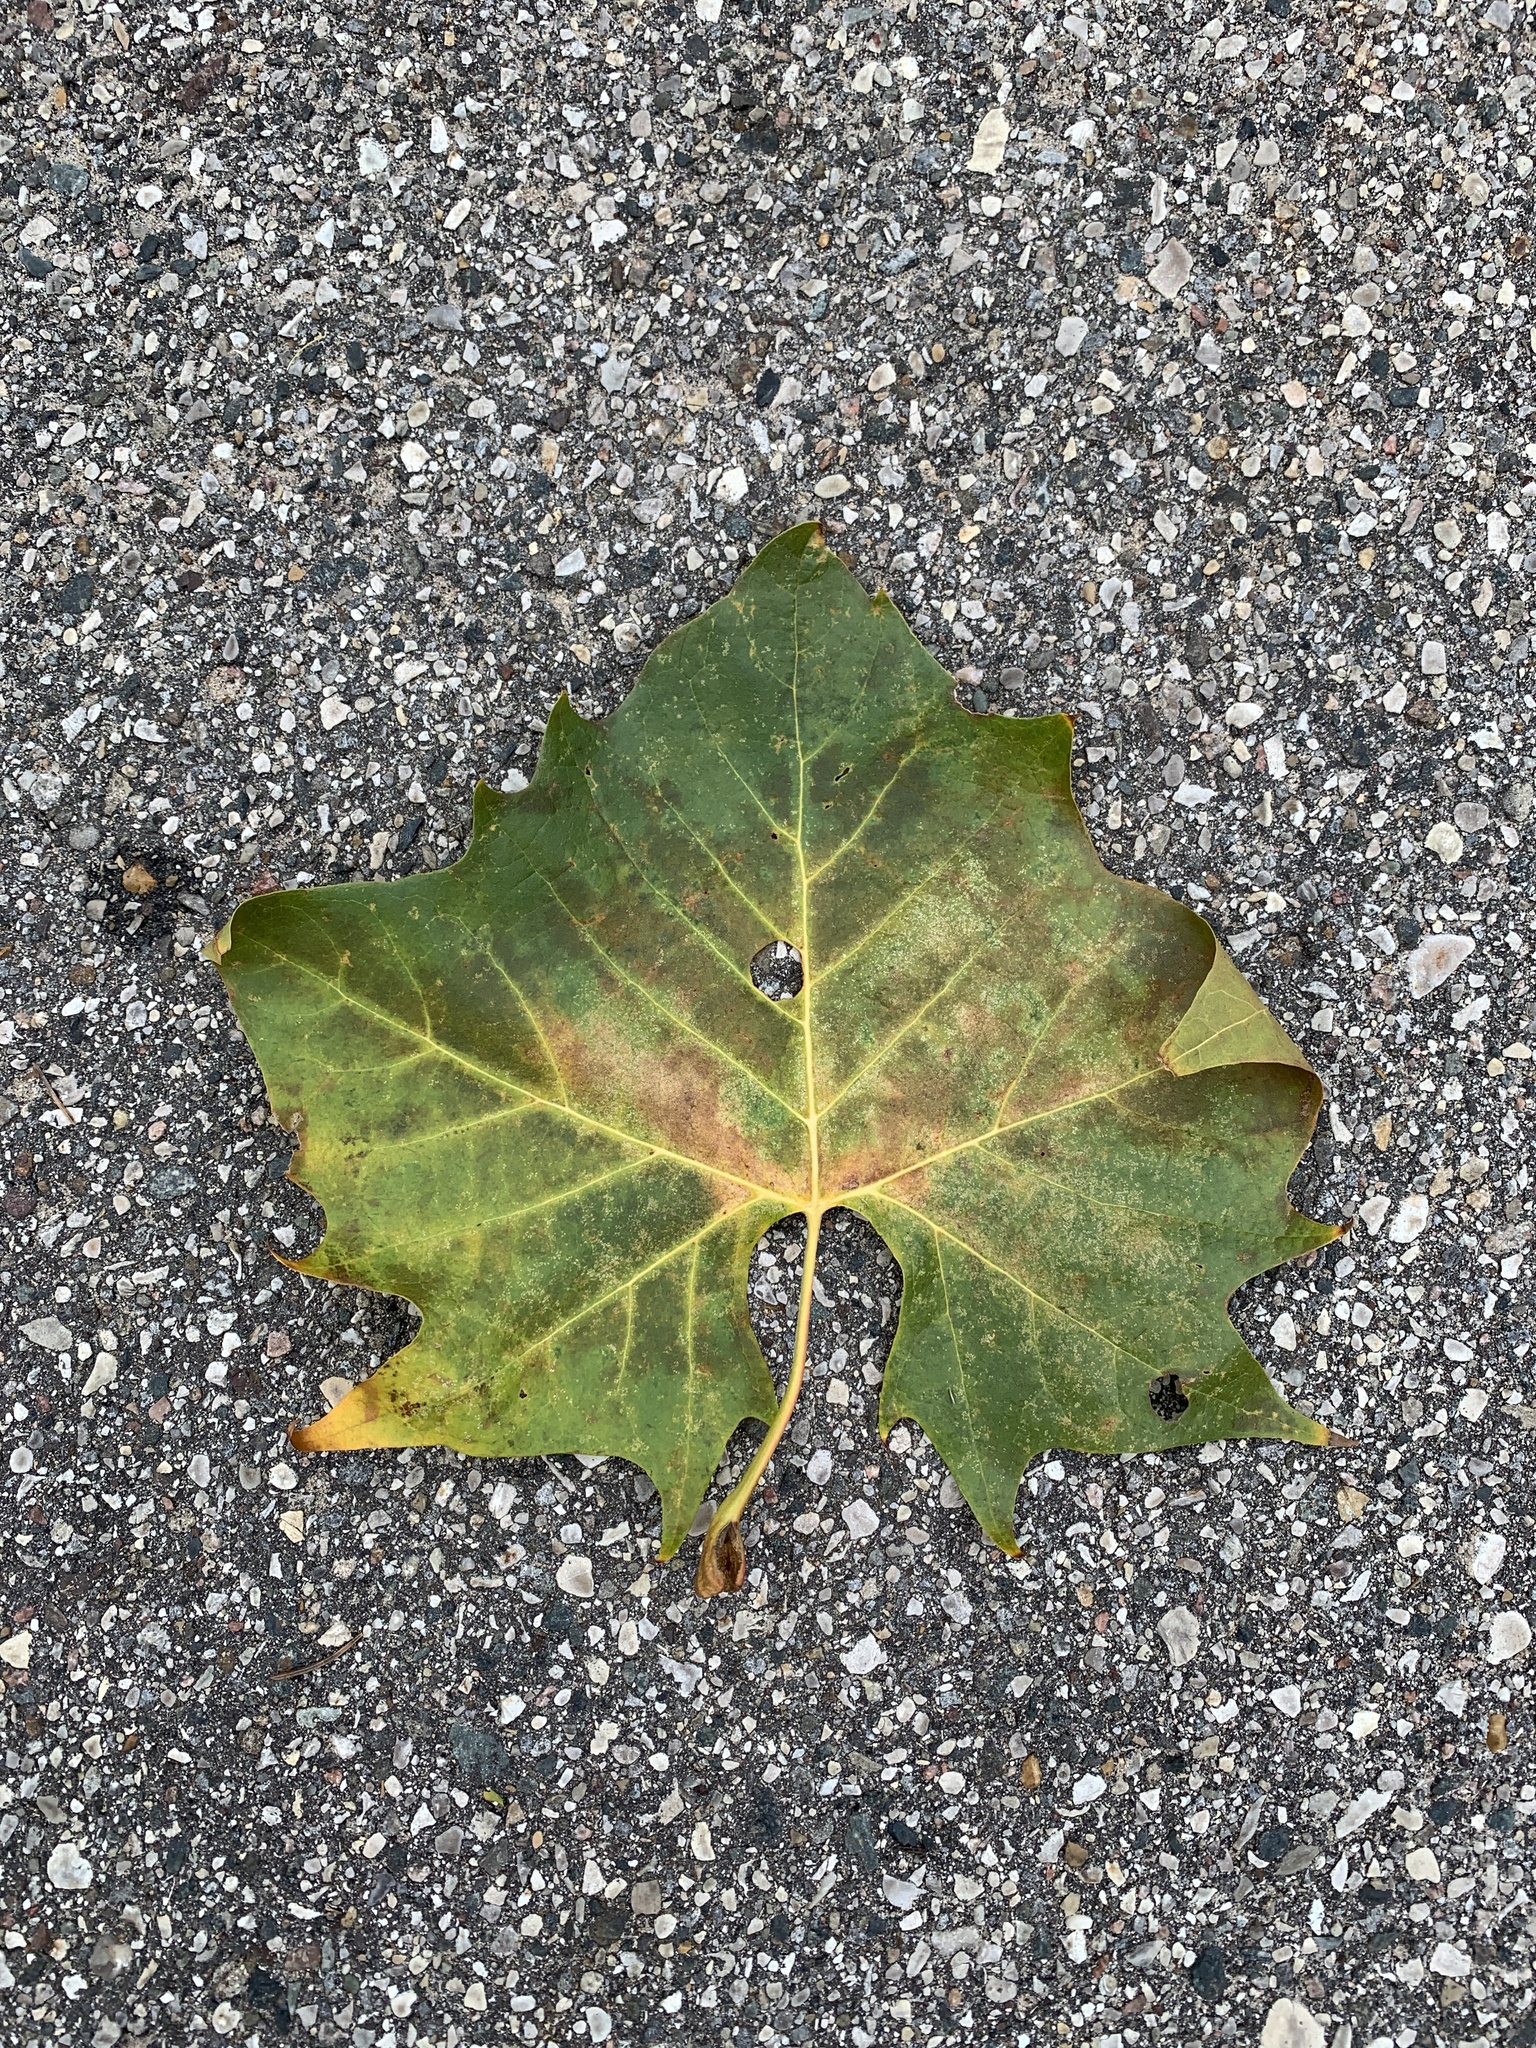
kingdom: Plantae
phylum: Tracheophyta
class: Magnoliopsida
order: Proteales
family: Platanaceae
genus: Platanus
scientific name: Platanus occidentalis
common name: American sycamore
